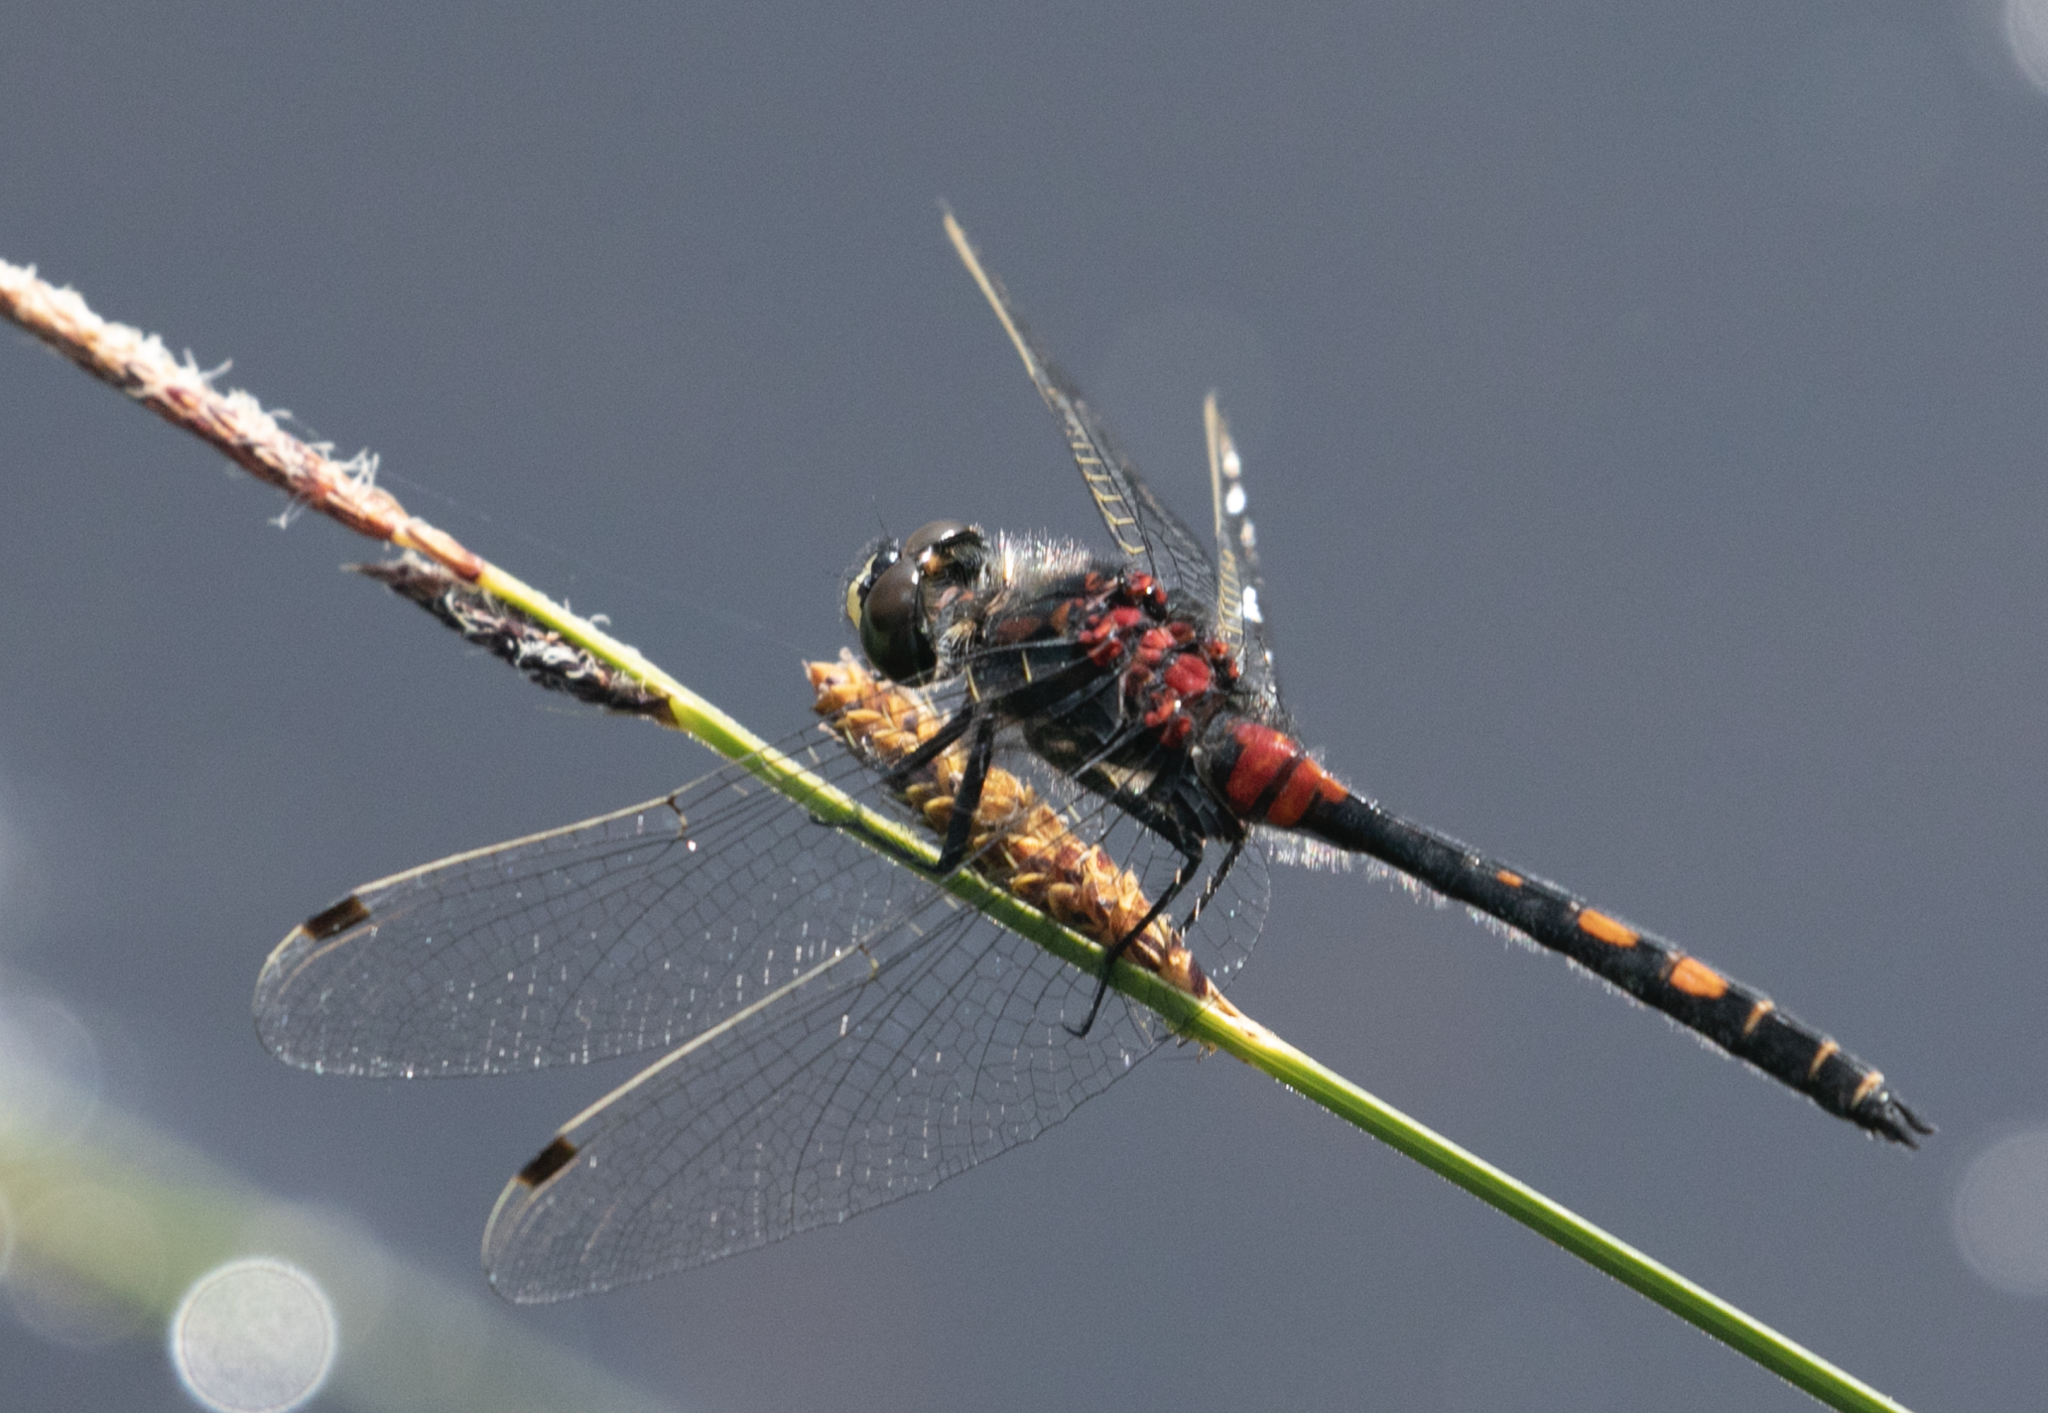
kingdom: Animalia
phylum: Arthropoda
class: Insecta
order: Odonata
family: Libellulidae
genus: Leucorrhinia
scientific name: Leucorrhinia dubia
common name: White-faced darter
